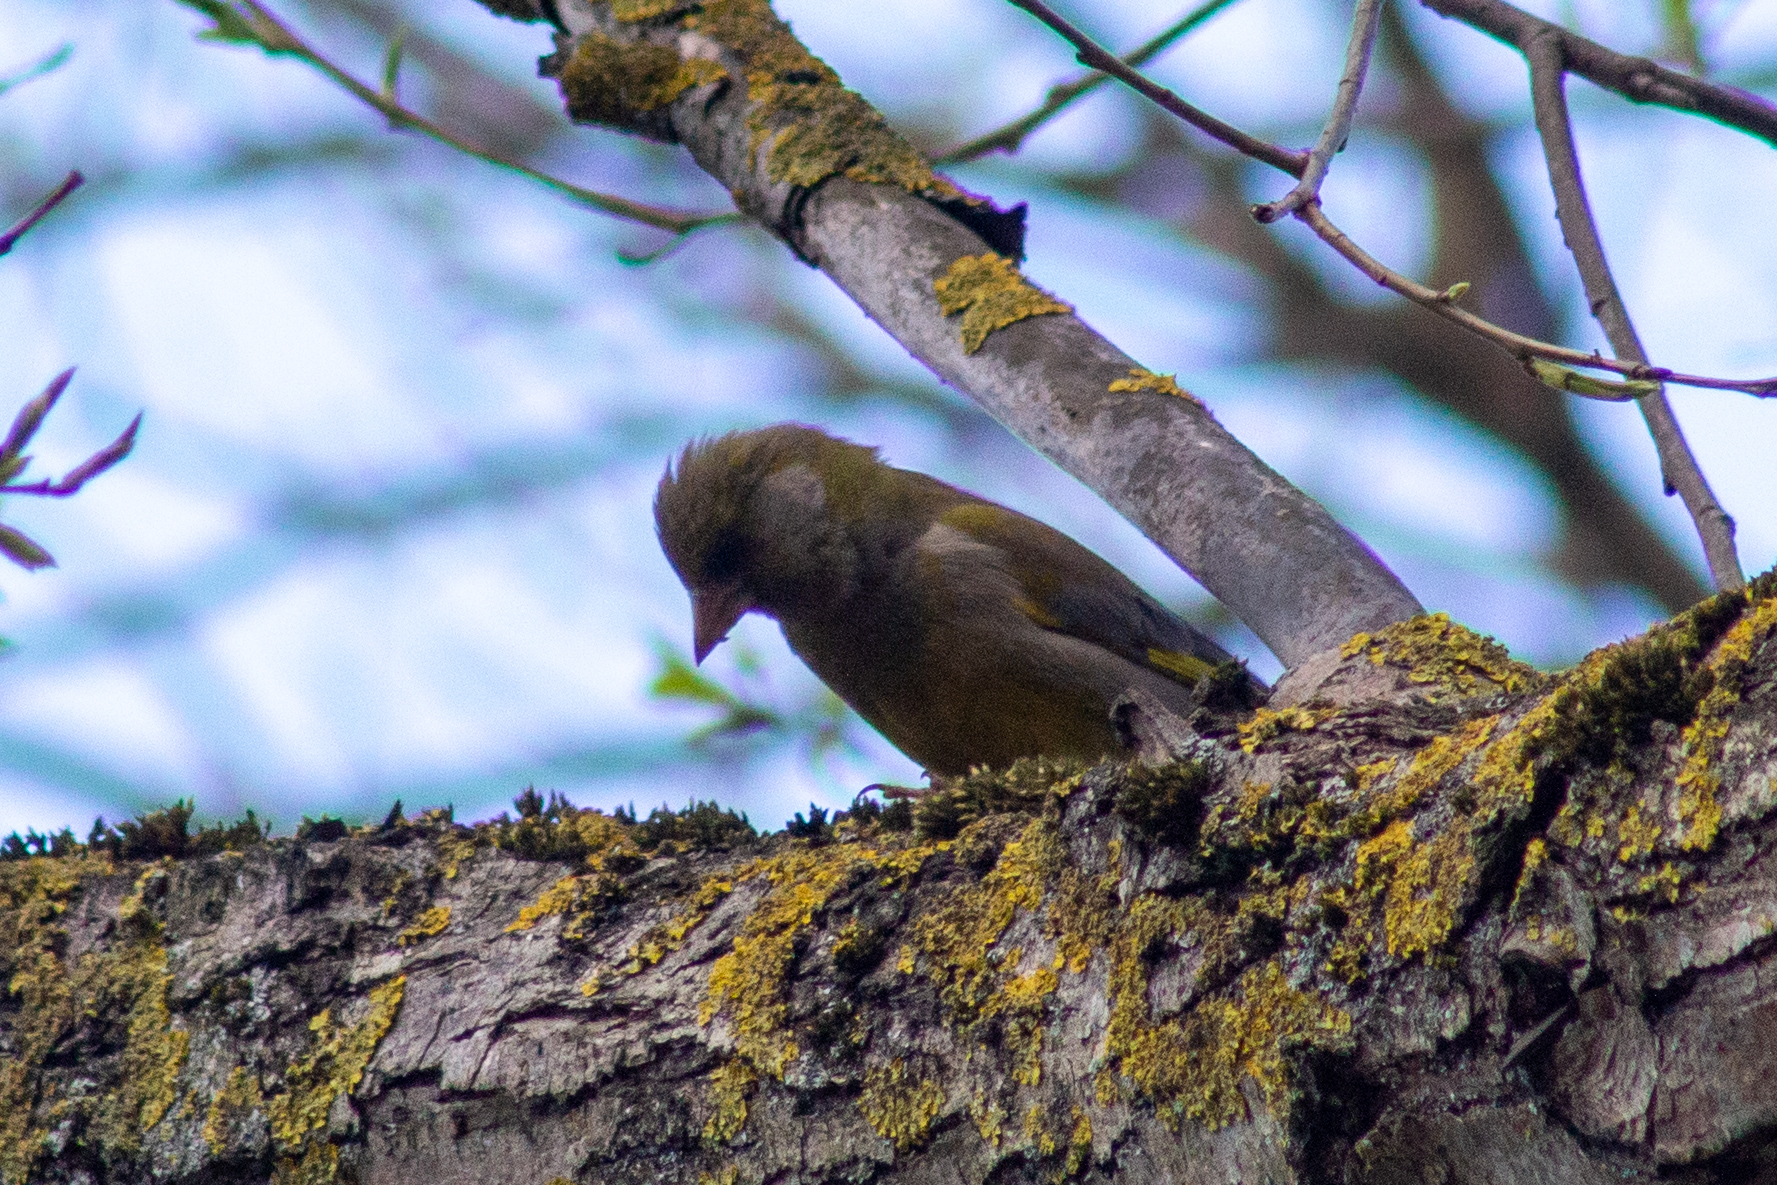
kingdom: Plantae
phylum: Tracheophyta
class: Liliopsida
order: Poales
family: Poaceae
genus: Chloris
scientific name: Chloris chloris
